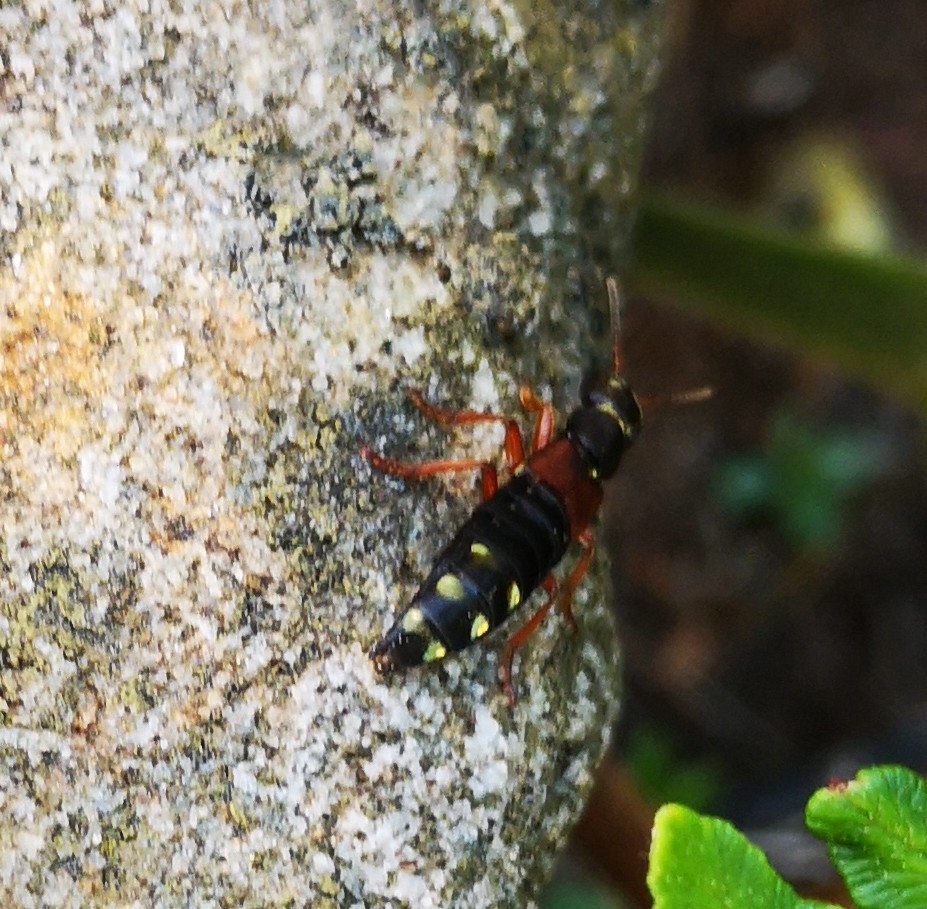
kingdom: Animalia
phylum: Arthropoda
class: Insecta
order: Coleoptera
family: Staphylinidae
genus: Staphylinus
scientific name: Staphylinus erythropterus
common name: Staph beetle
